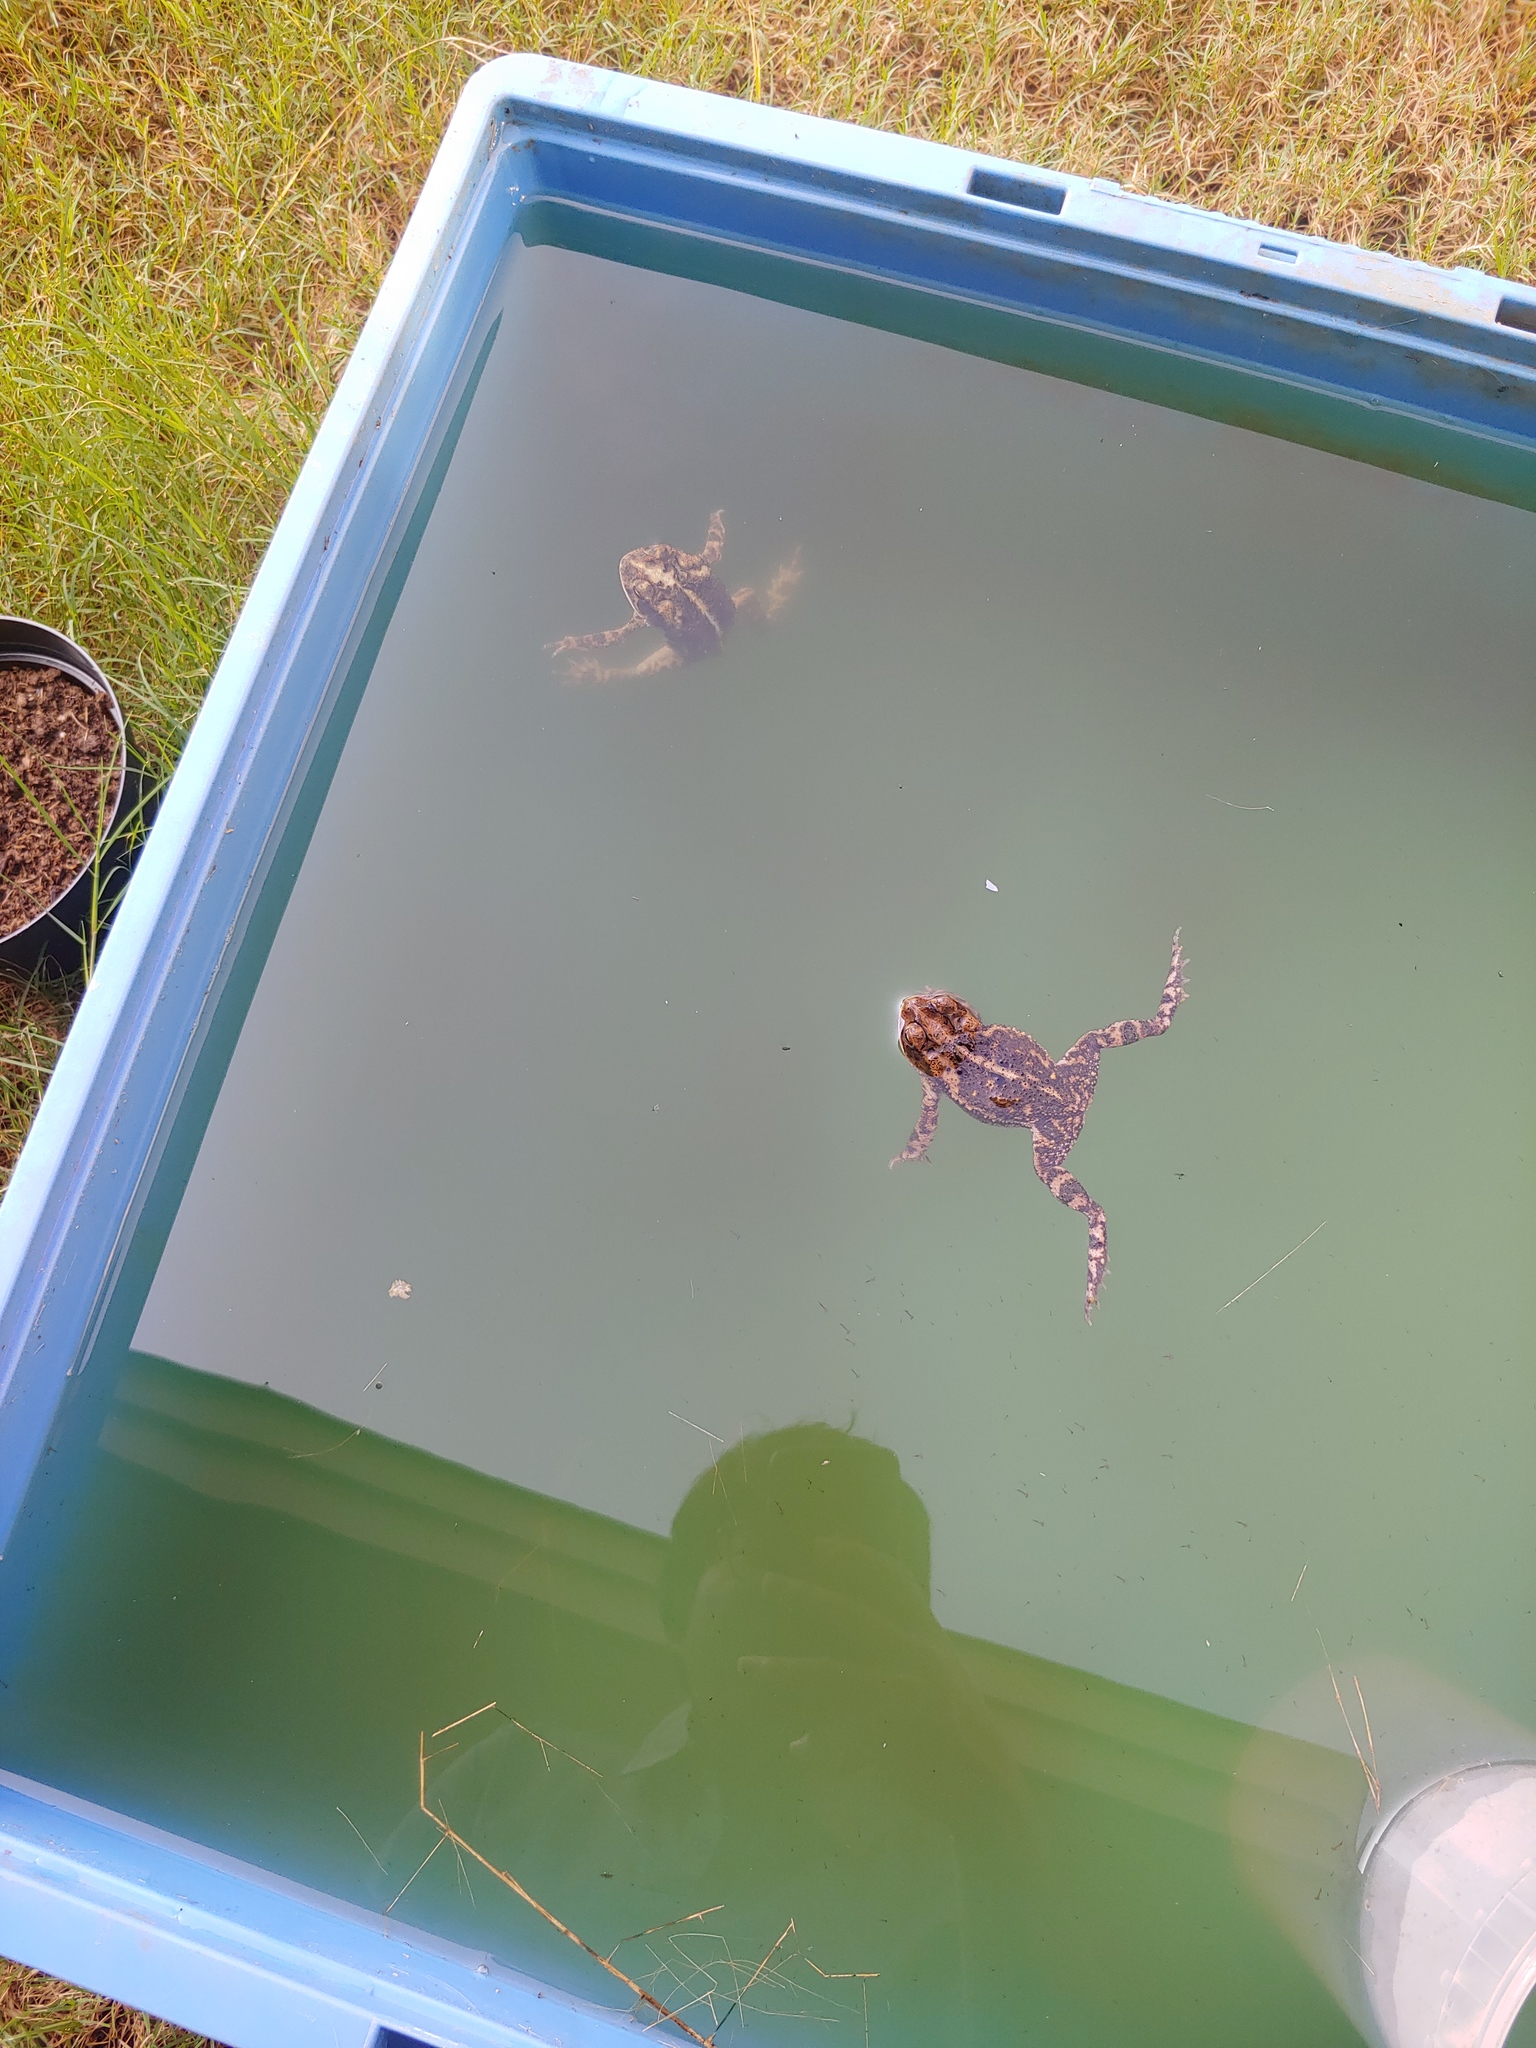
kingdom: Animalia
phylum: Chordata
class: Amphibia
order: Anura
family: Bufonidae
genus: Incilius
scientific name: Incilius nebulifer
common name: Gulf coast toad
